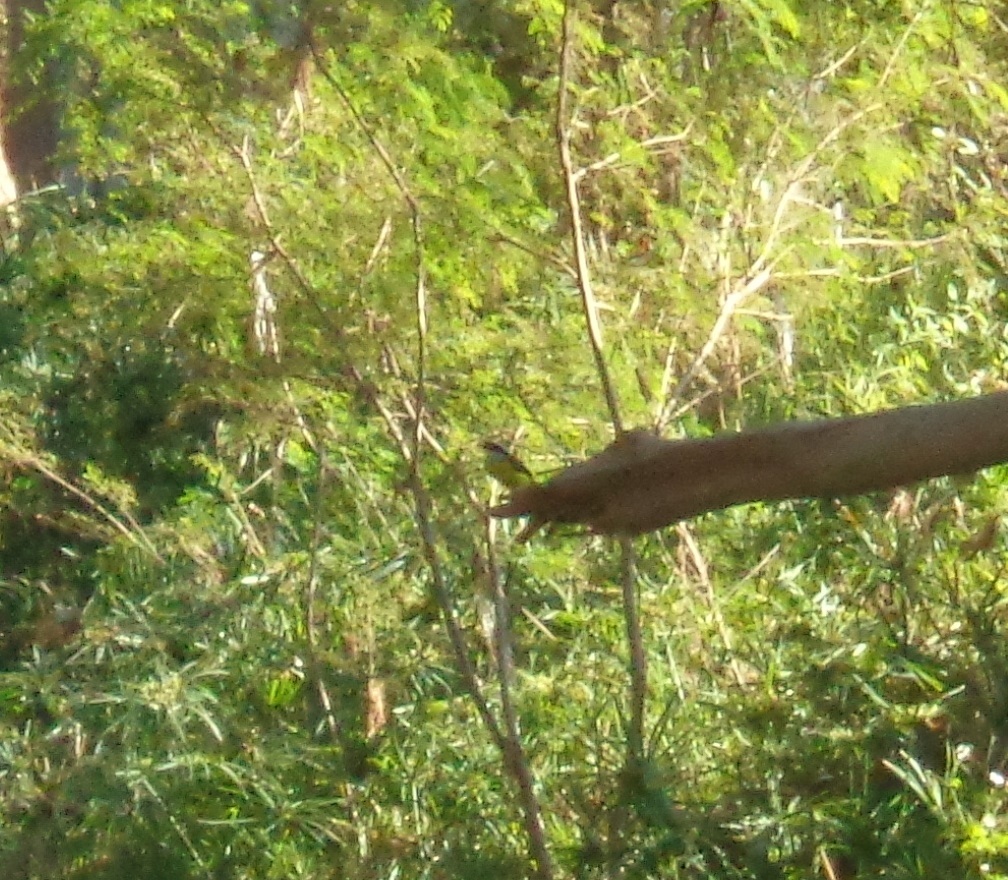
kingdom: Animalia
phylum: Chordata
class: Aves
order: Passeriformes
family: Tyrannidae
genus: Pitangus
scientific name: Pitangus sulphuratus
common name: Great kiskadee
